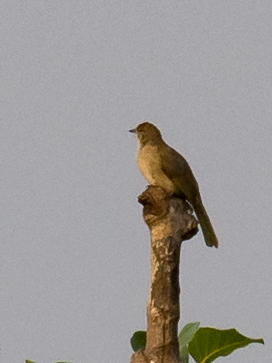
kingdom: Animalia
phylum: Chordata
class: Aves
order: Passeriformes
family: Pycnonotidae
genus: Pycnonotus
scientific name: Pycnonotus blanfordi
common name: Streak-eared bulbul
